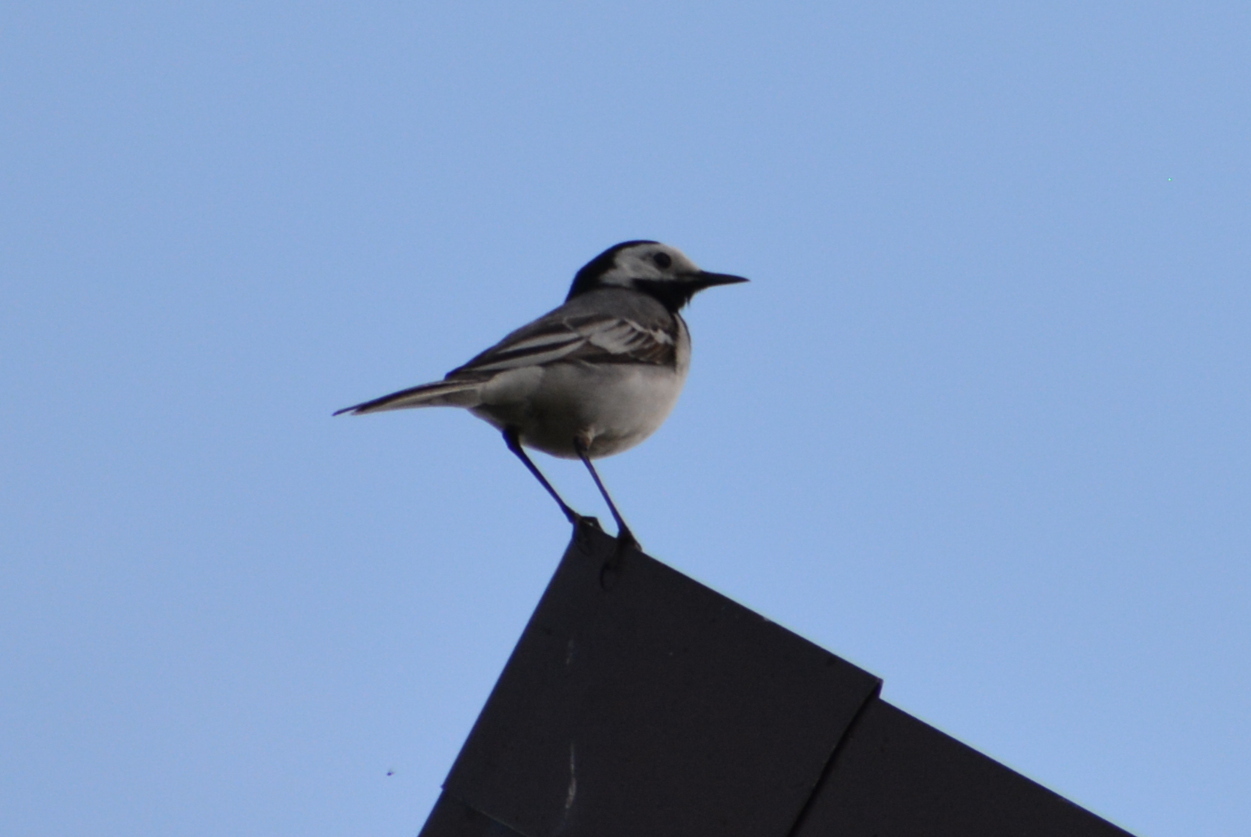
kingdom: Animalia
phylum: Chordata
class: Aves
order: Passeriformes
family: Motacillidae
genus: Motacilla
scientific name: Motacilla alba
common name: White wagtail
